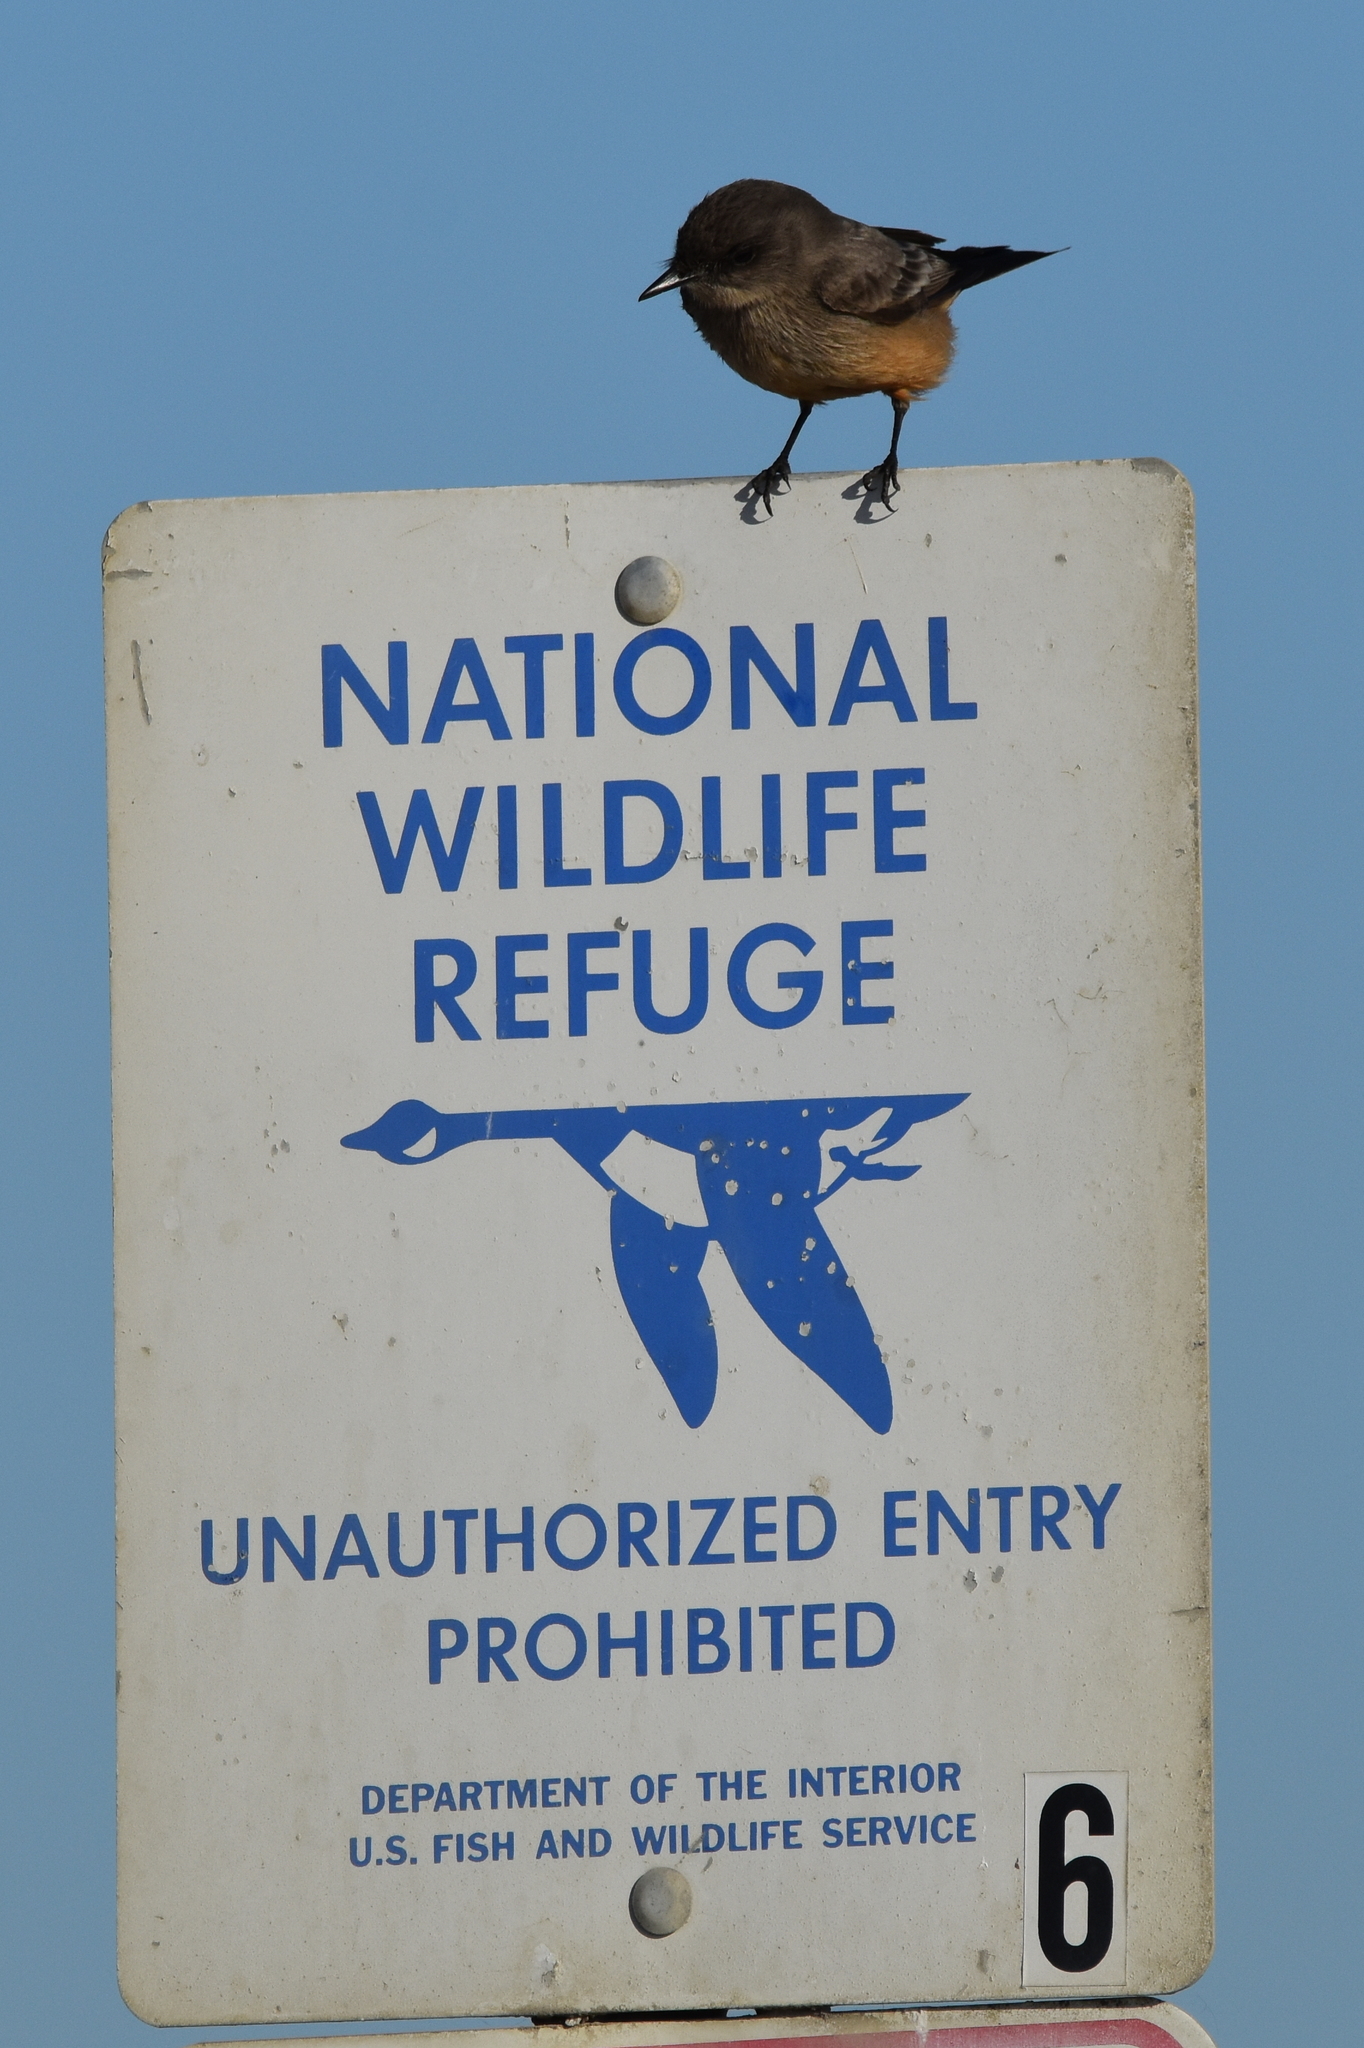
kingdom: Animalia
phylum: Chordata
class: Aves
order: Passeriformes
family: Tyrannidae
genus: Sayornis
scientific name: Sayornis saya
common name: Say's phoebe
